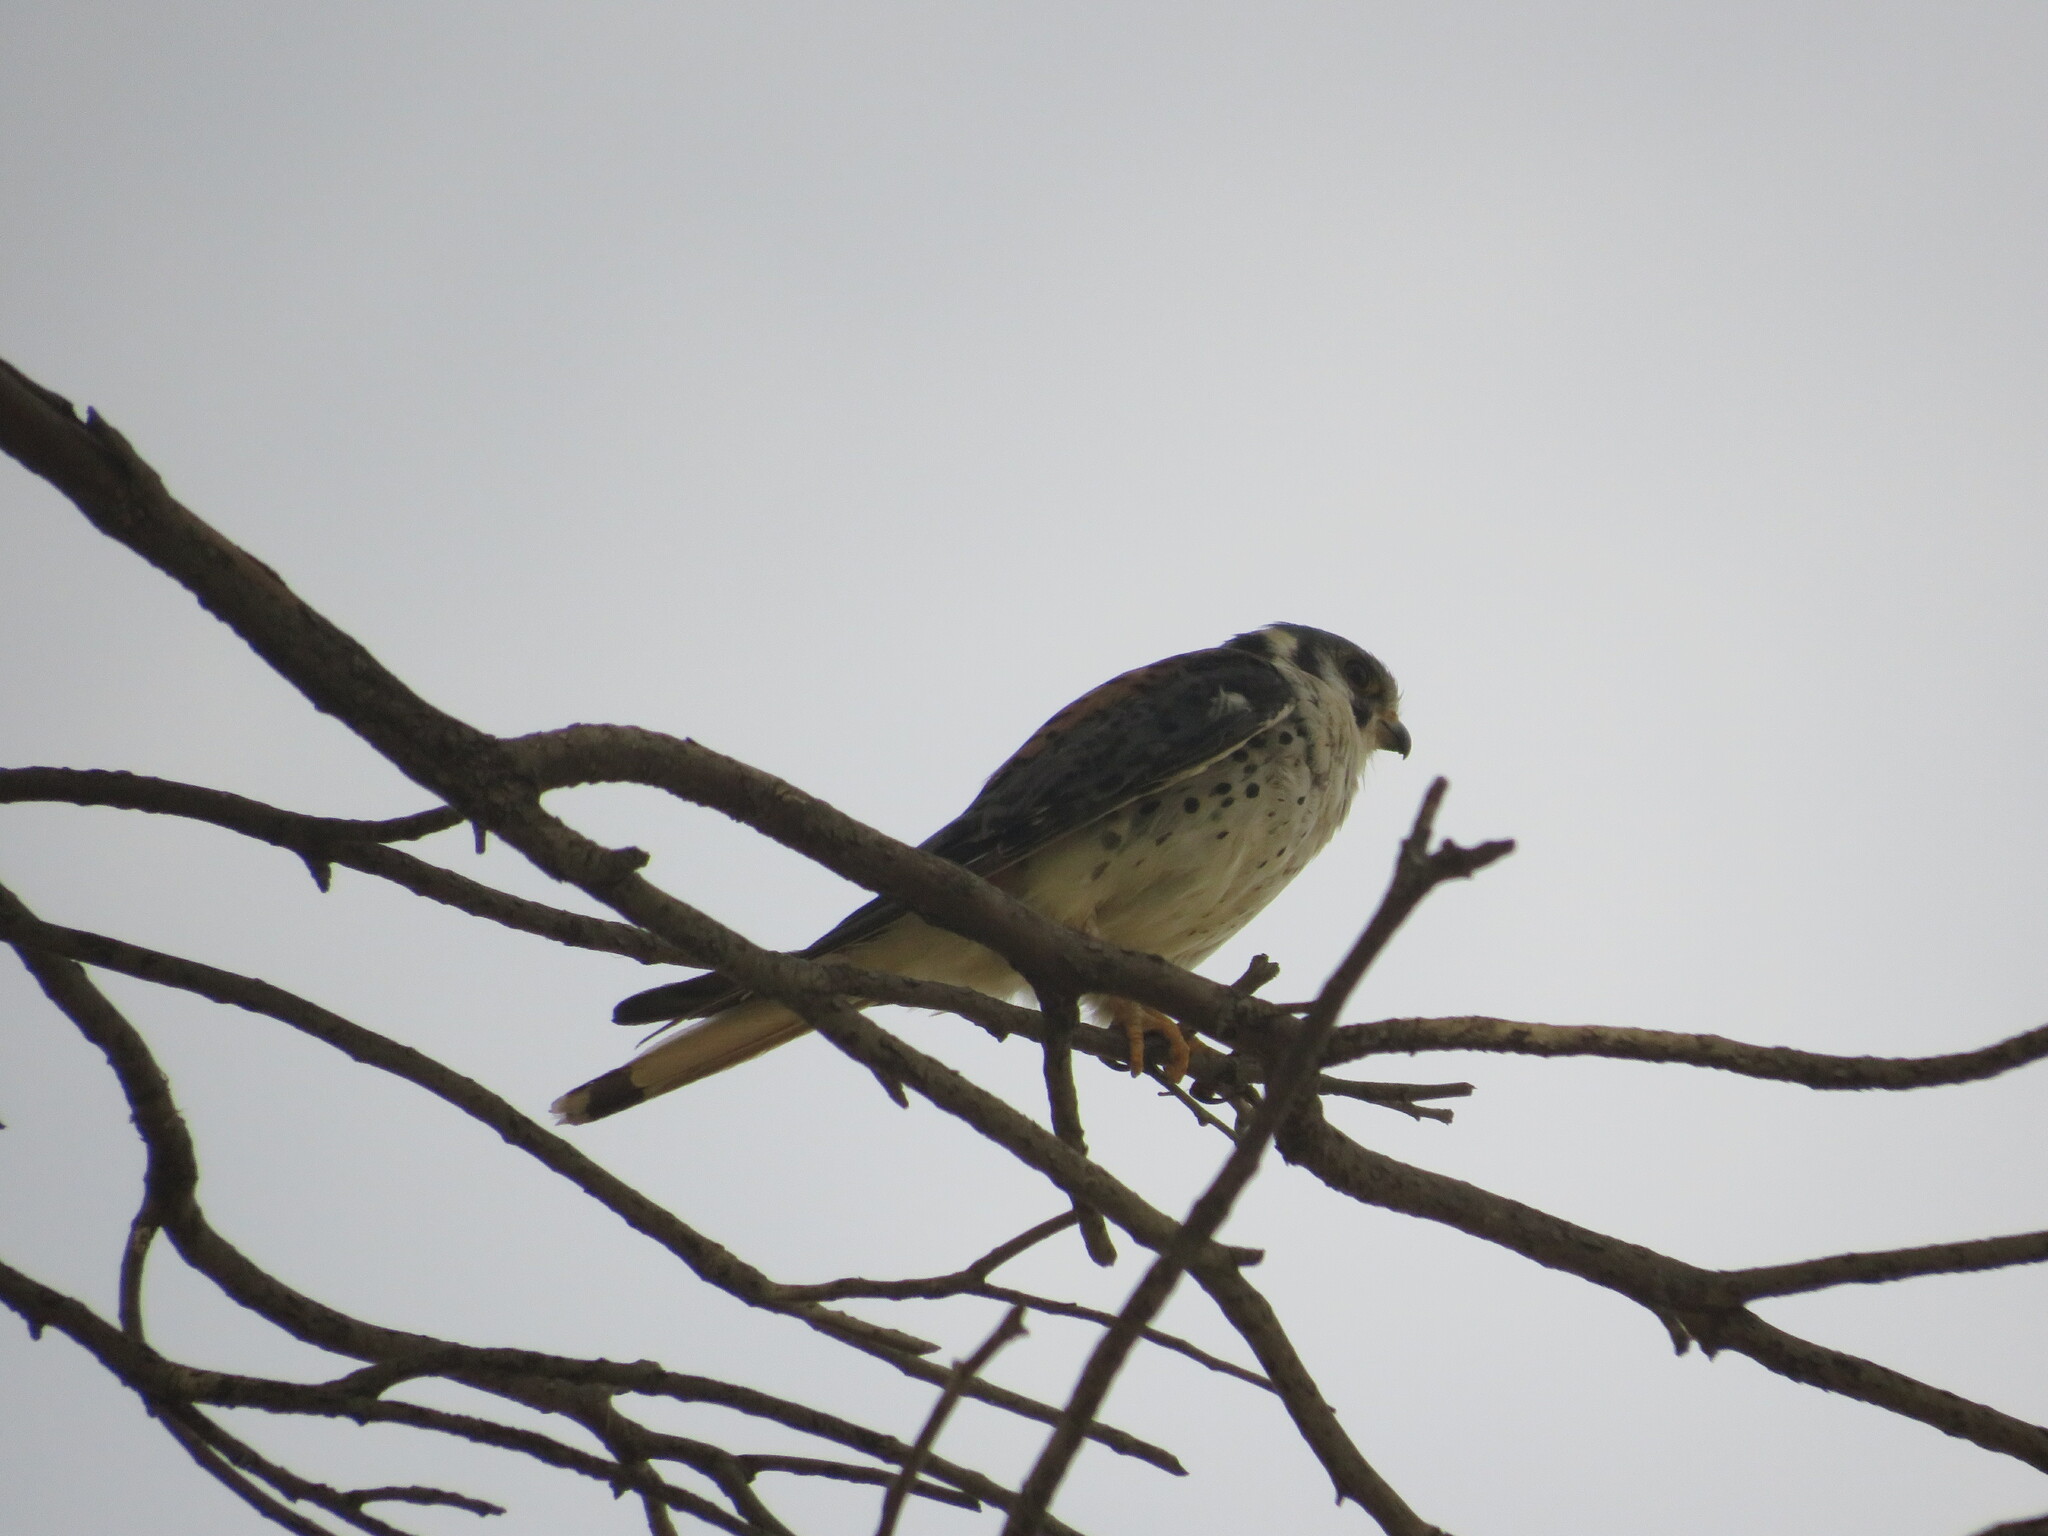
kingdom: Animalia
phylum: Chordata
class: Aves
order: Falconiformes
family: Falconidae
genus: Falco
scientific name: Falco sparverius
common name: American kestrel
